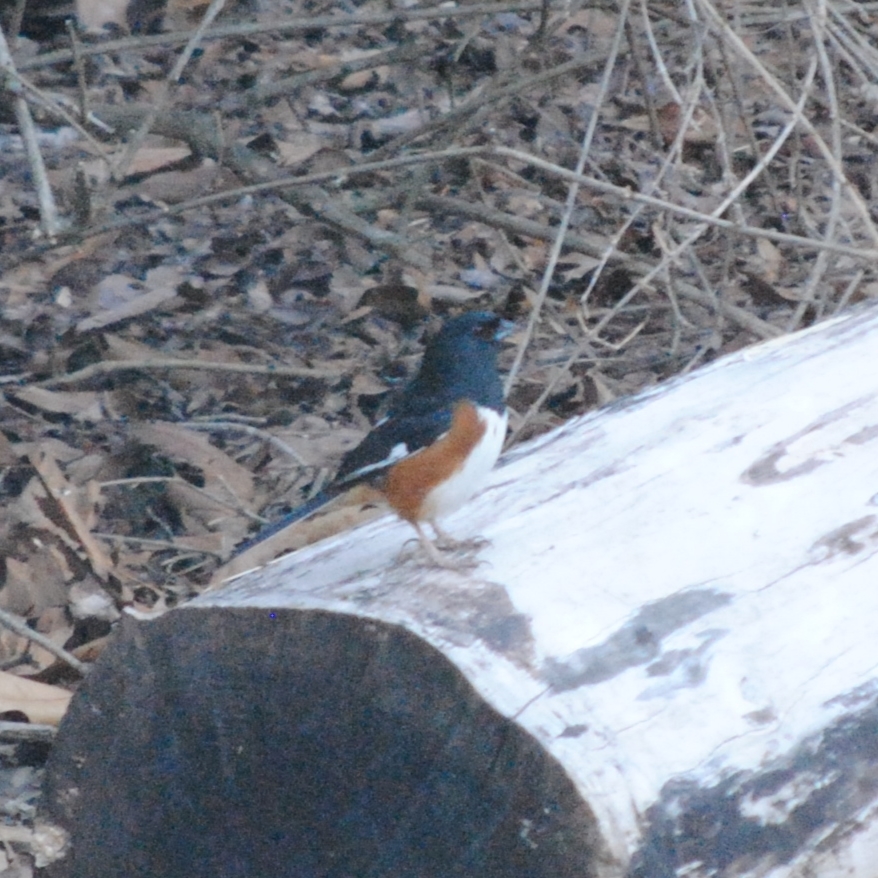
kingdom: Animalia
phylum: Chordata
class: Aves
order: Passeriformes
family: Passerellidae
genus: Pipilo
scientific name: Pipilo erythrophthalmus
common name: Eastern towhee
